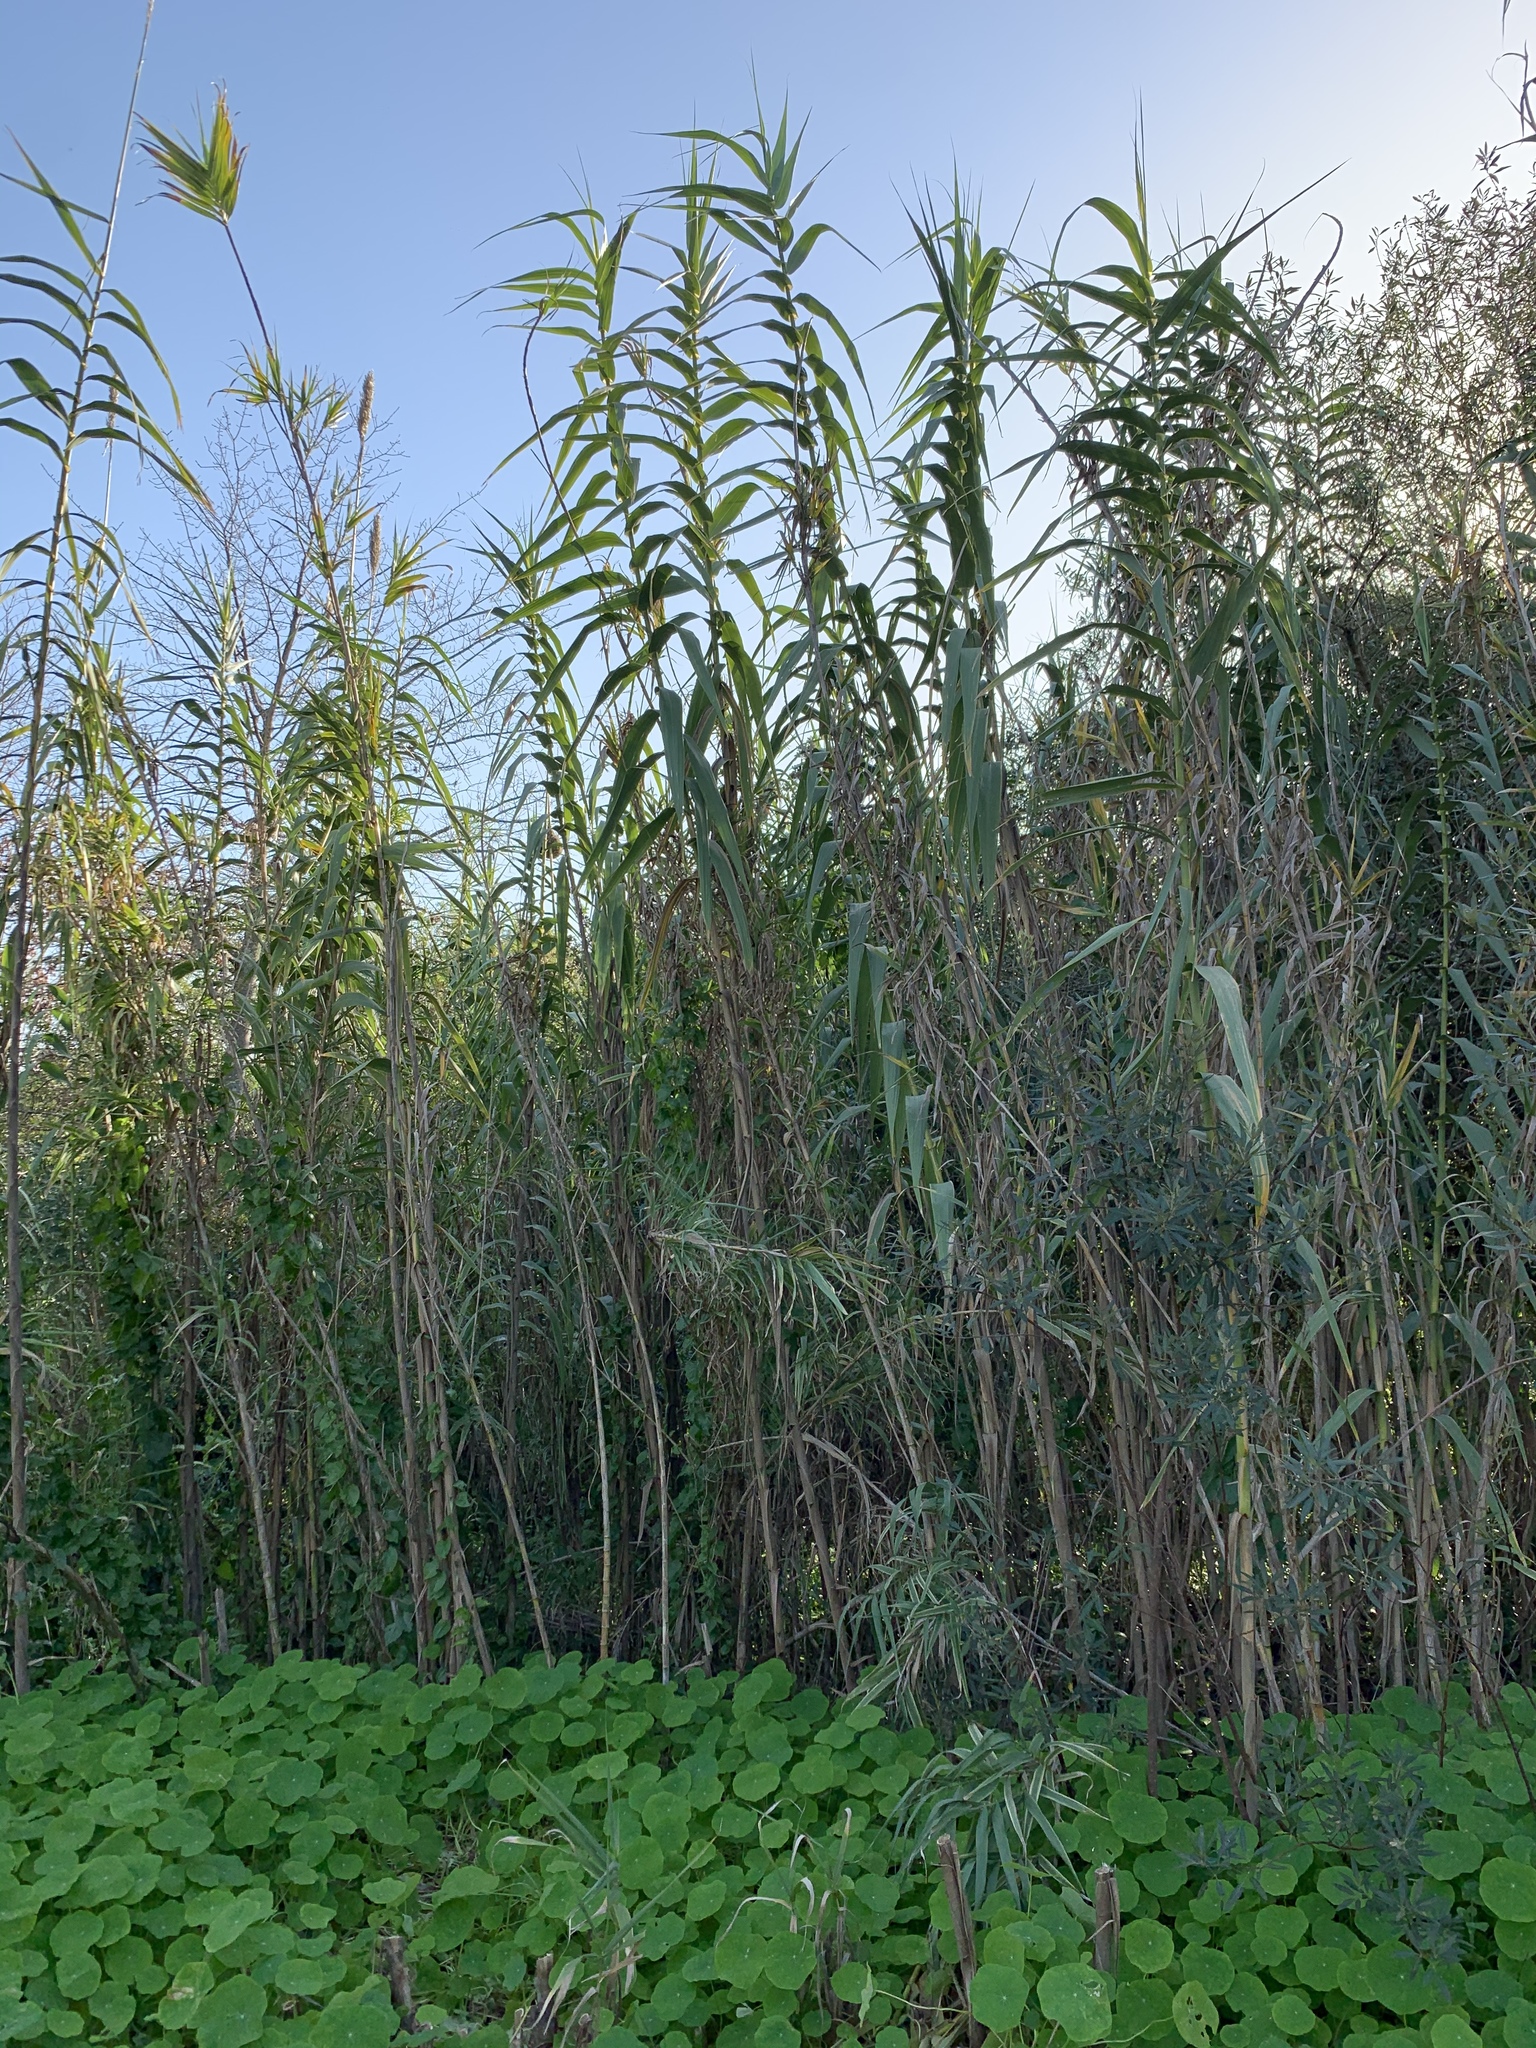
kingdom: Plantae
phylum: Tracheophyta
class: Liliopsida
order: Poales
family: Poaceae
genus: Arundo
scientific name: Arundo donax
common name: Giant reed
